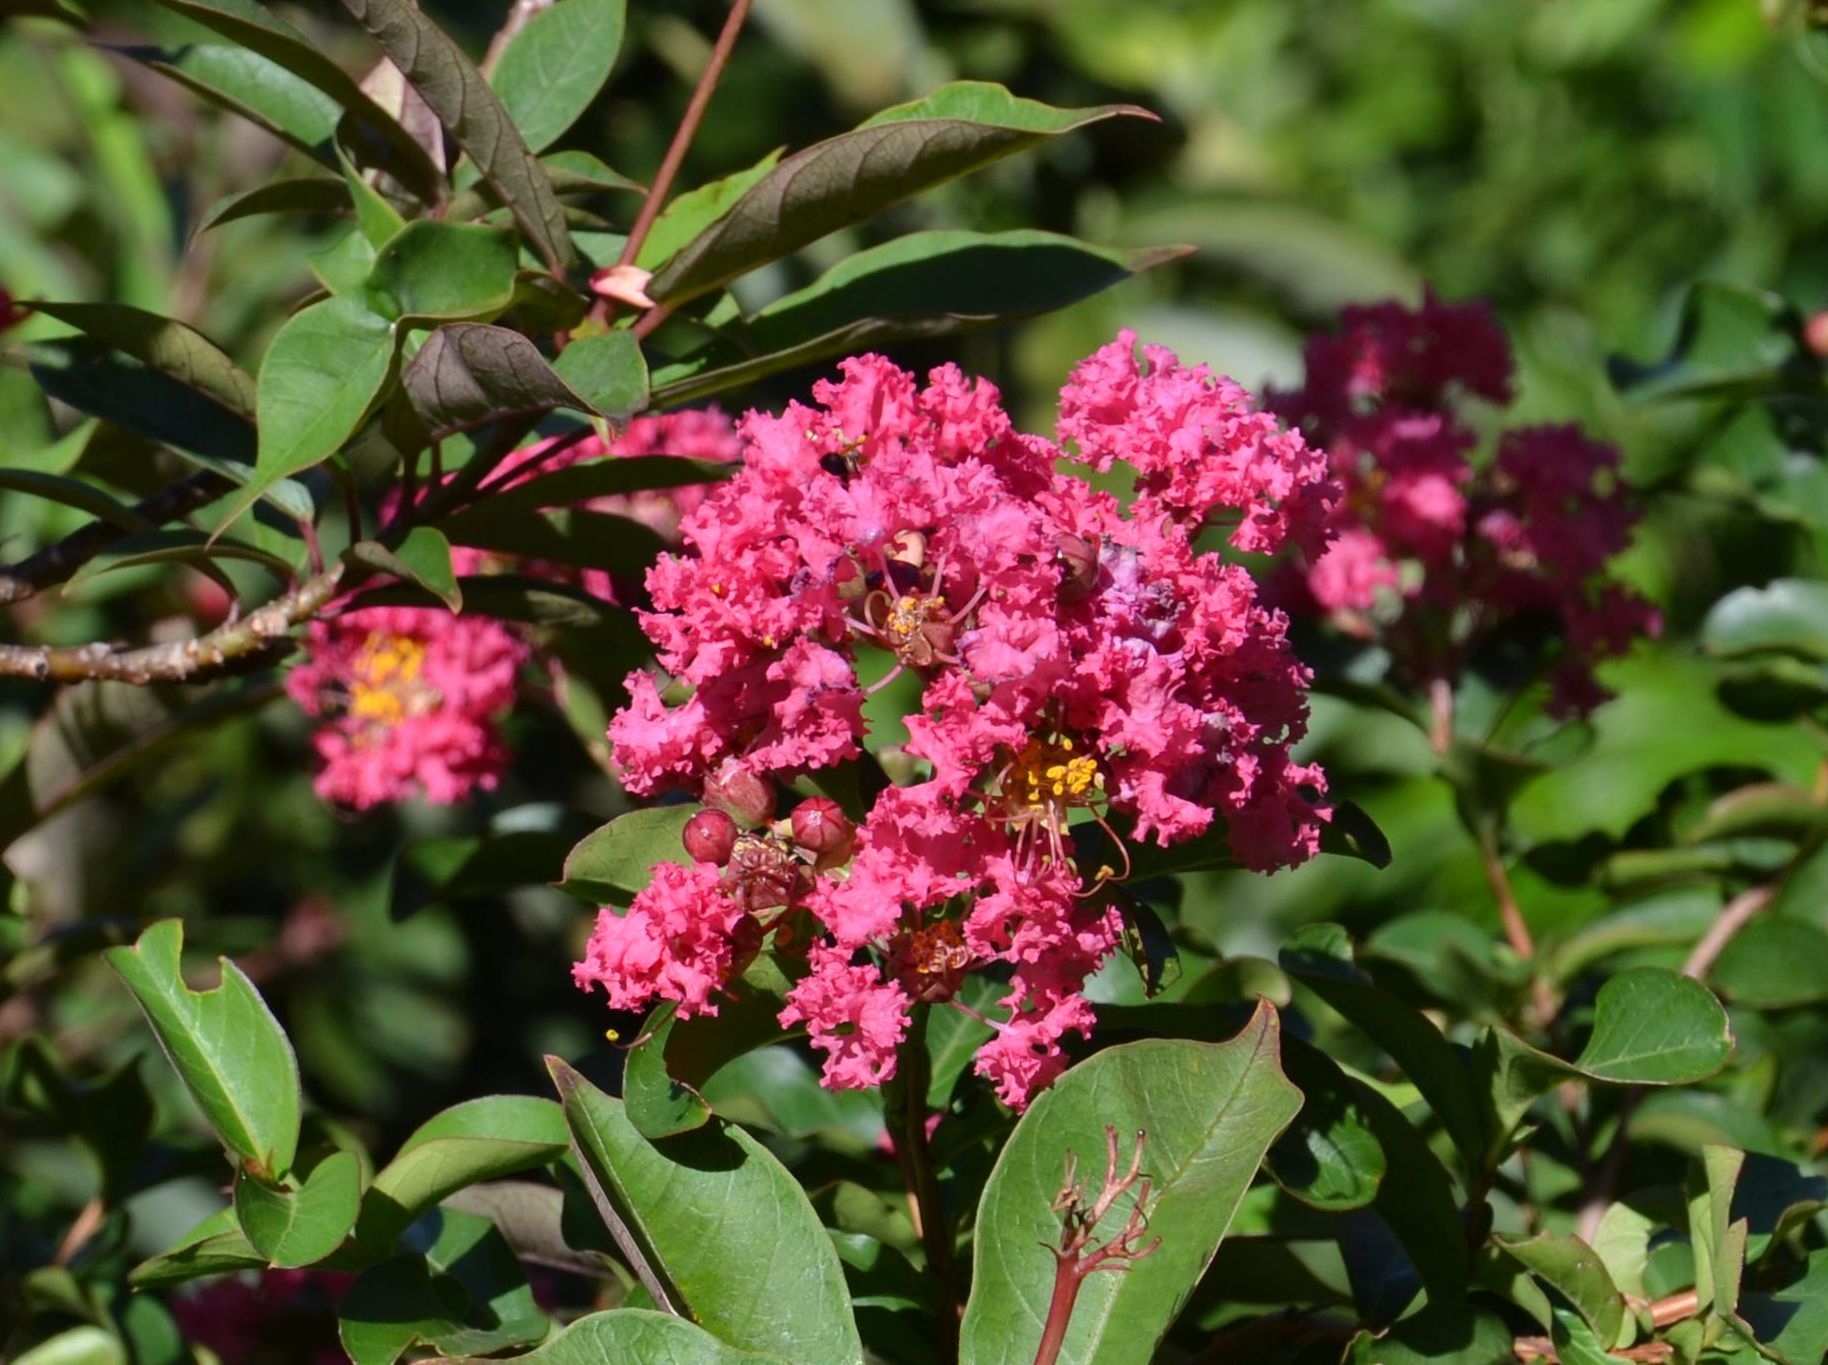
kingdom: Plantae
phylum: Tracheophyta
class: Magnoliopsida
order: Myrtales
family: Lythraceae
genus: Lagerstroemia
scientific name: Lagerstroemia indica
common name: Crape-myrtle
